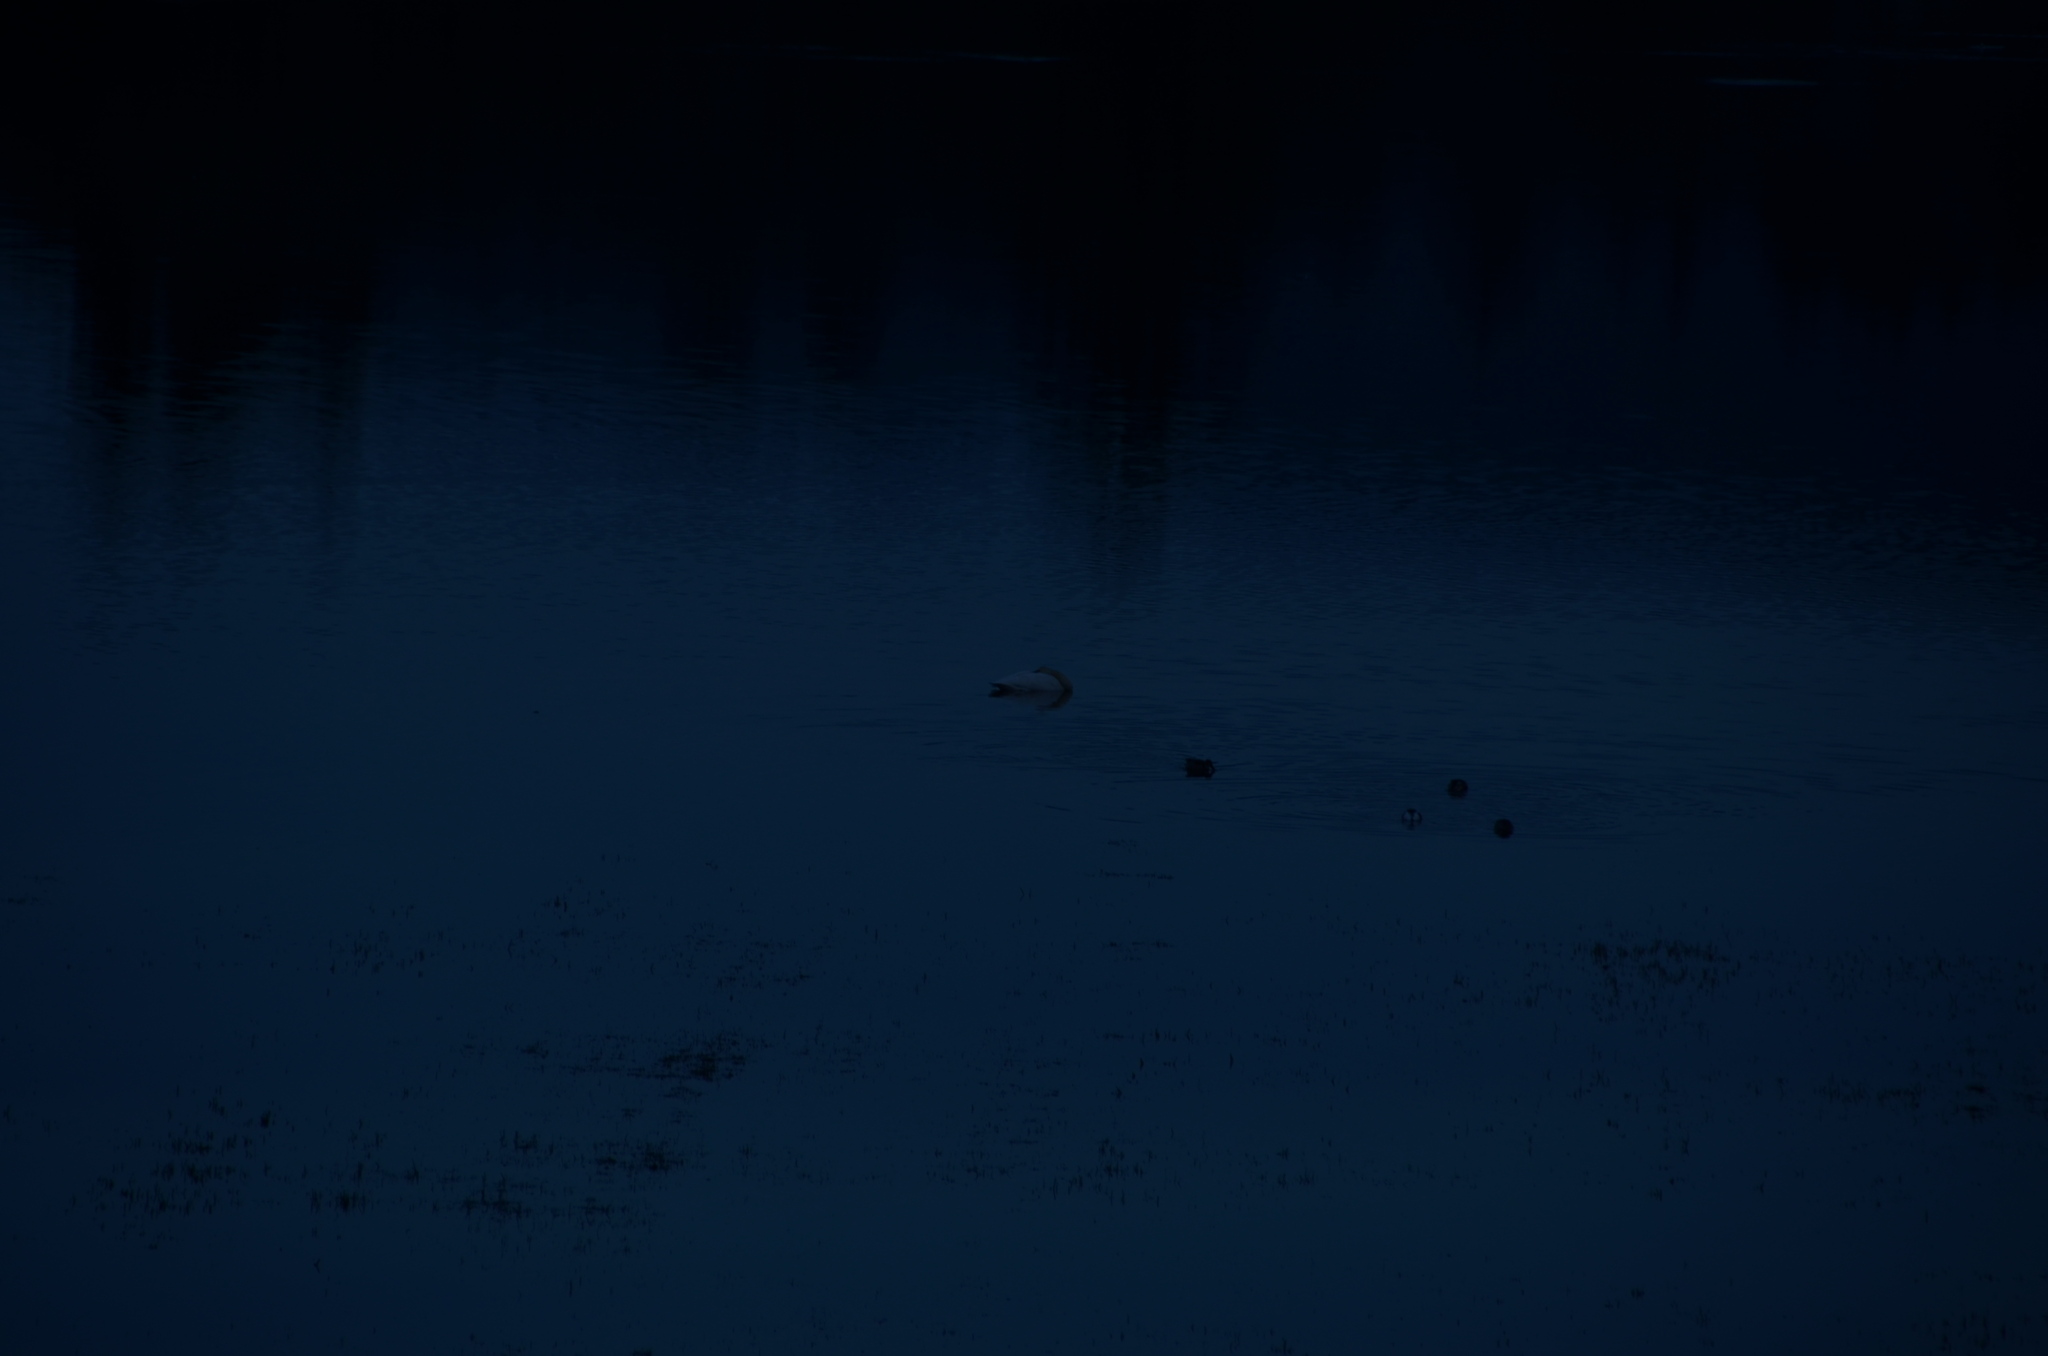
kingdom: Animalia
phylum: Chordata
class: Aves
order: Anseriformes
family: Anatidae
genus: Cygnus
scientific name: Cygnus buccinator
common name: Trumpeter swan
